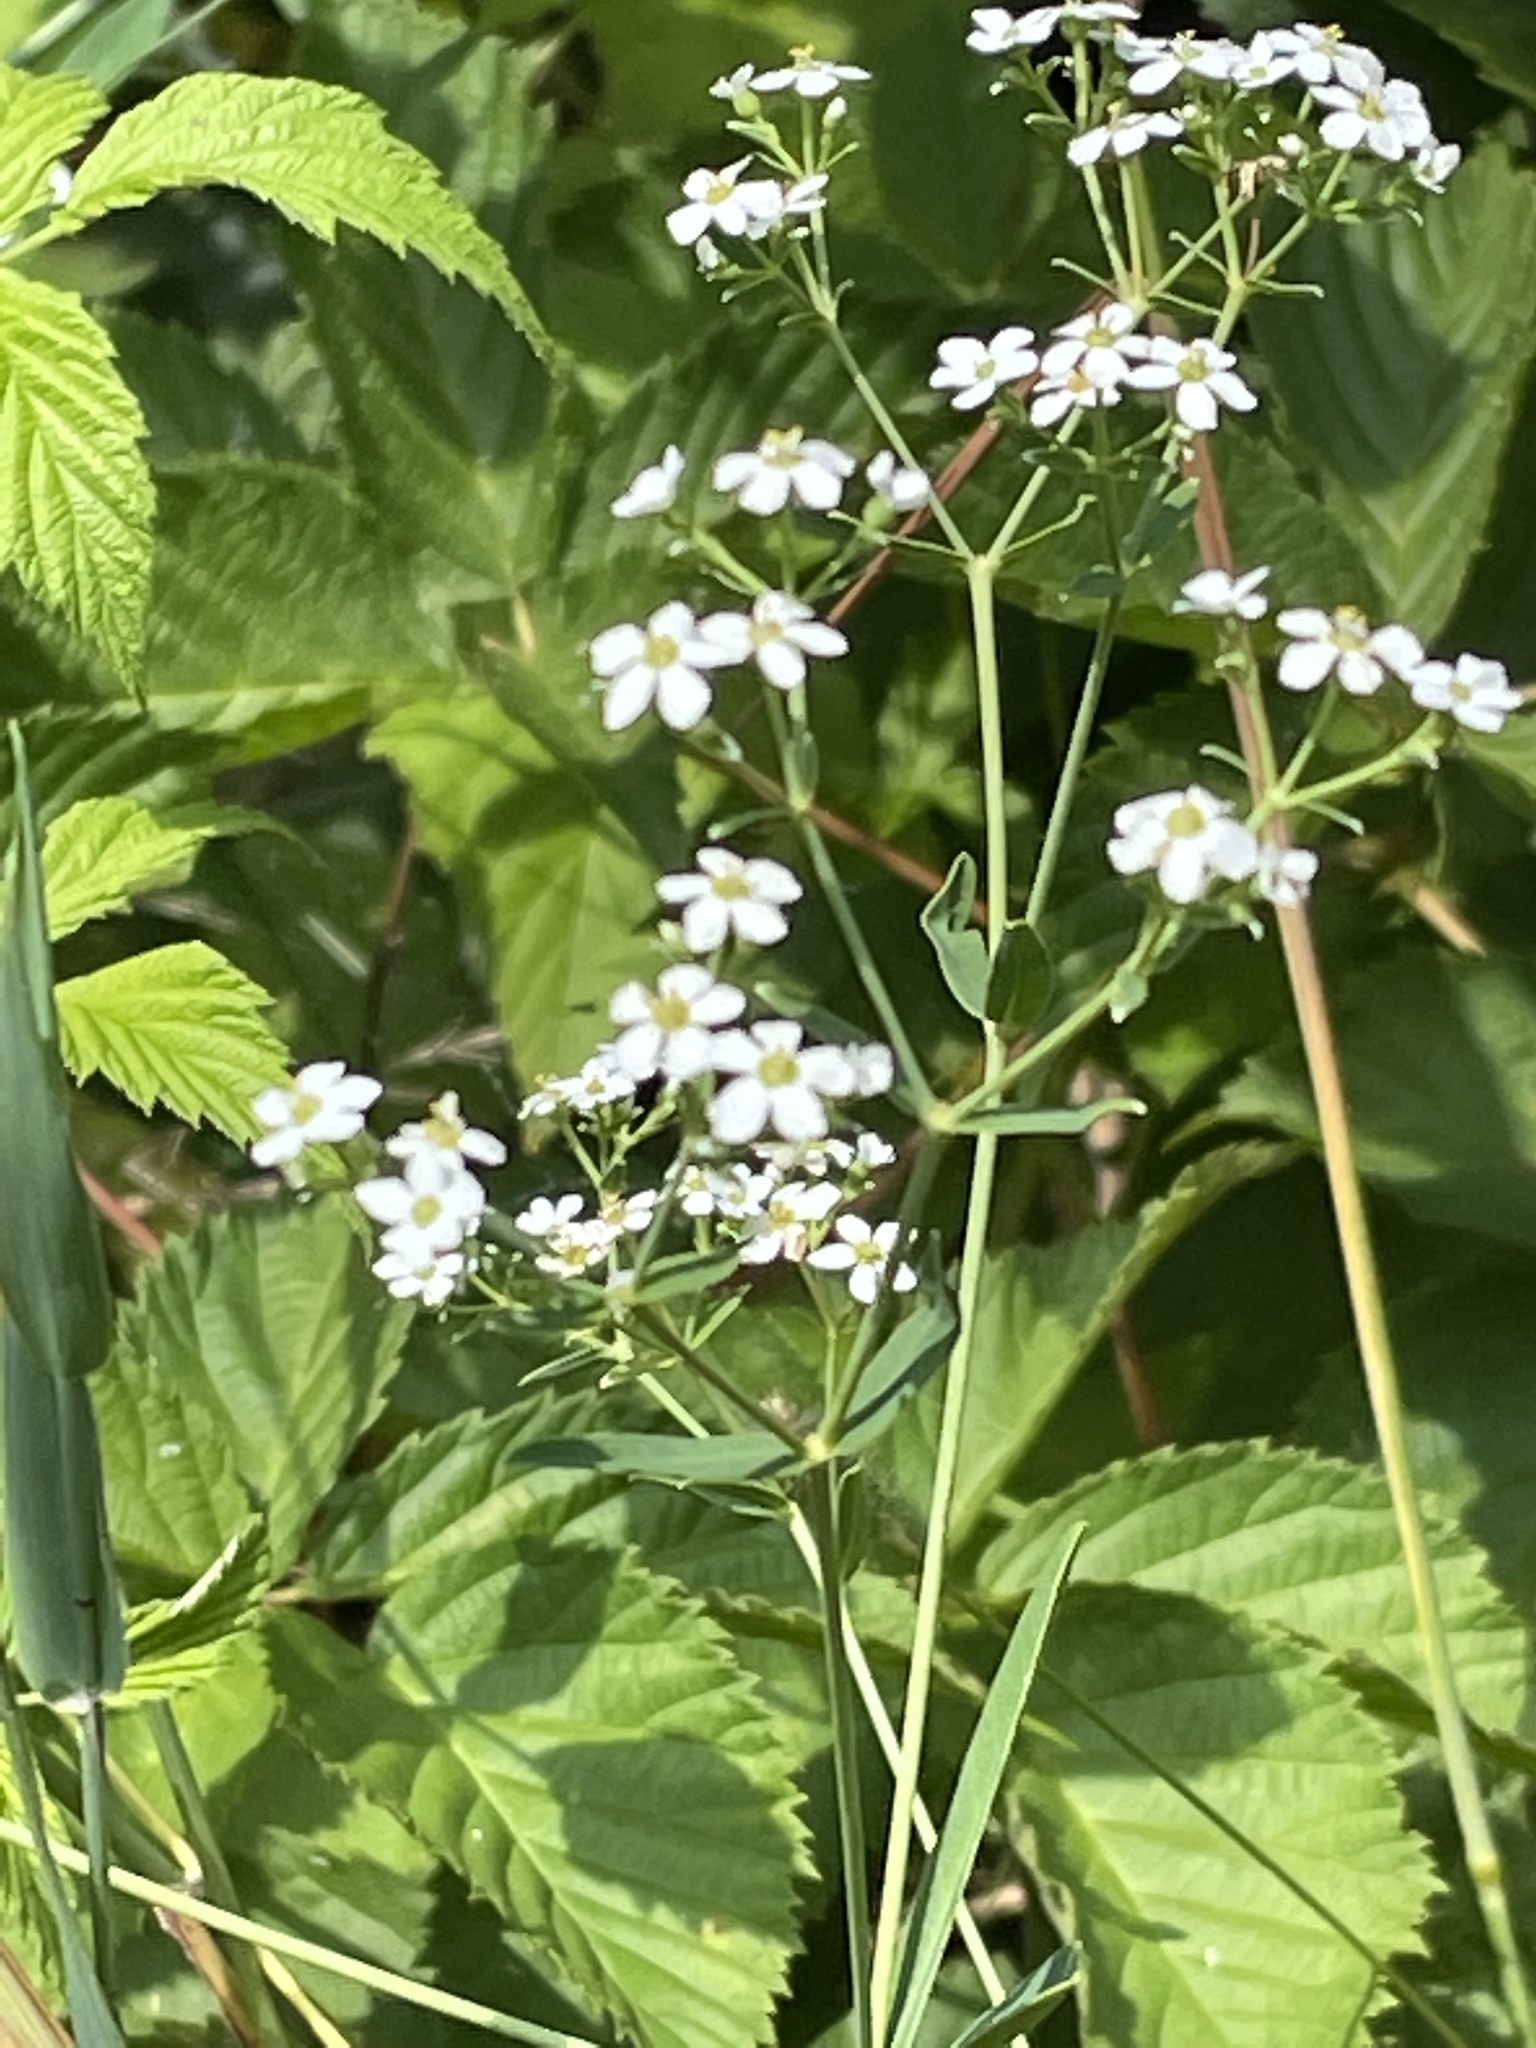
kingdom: Plantae
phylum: Tracheophyta
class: Magnoliopsida
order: Malpighiales
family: Euphorbiaceae
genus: Euphorbia
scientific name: Euphorbia corollata
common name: Flowering spurge
